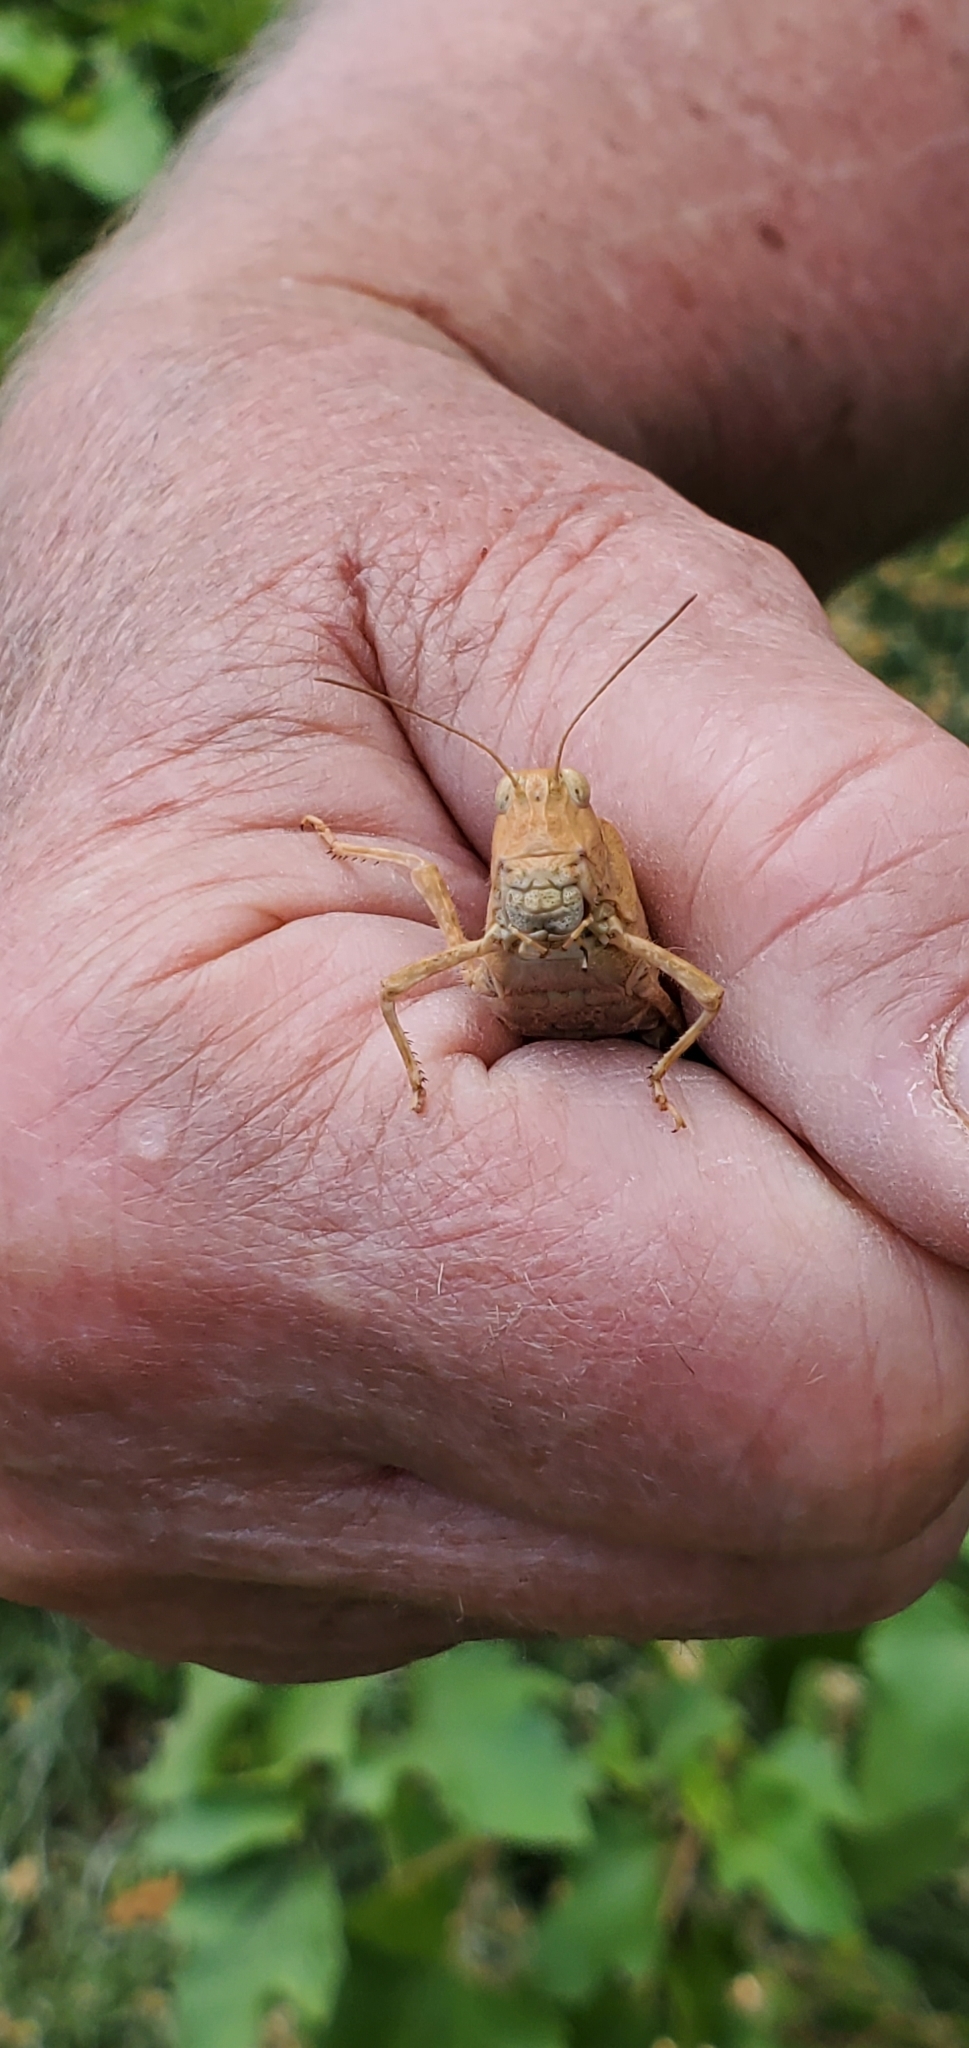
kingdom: Animalia
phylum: Arthropoda
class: Insecta
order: Orthoptera
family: Acrididae
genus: Dissosteira
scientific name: Dissosteira carolina
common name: Carolina grasshopper
